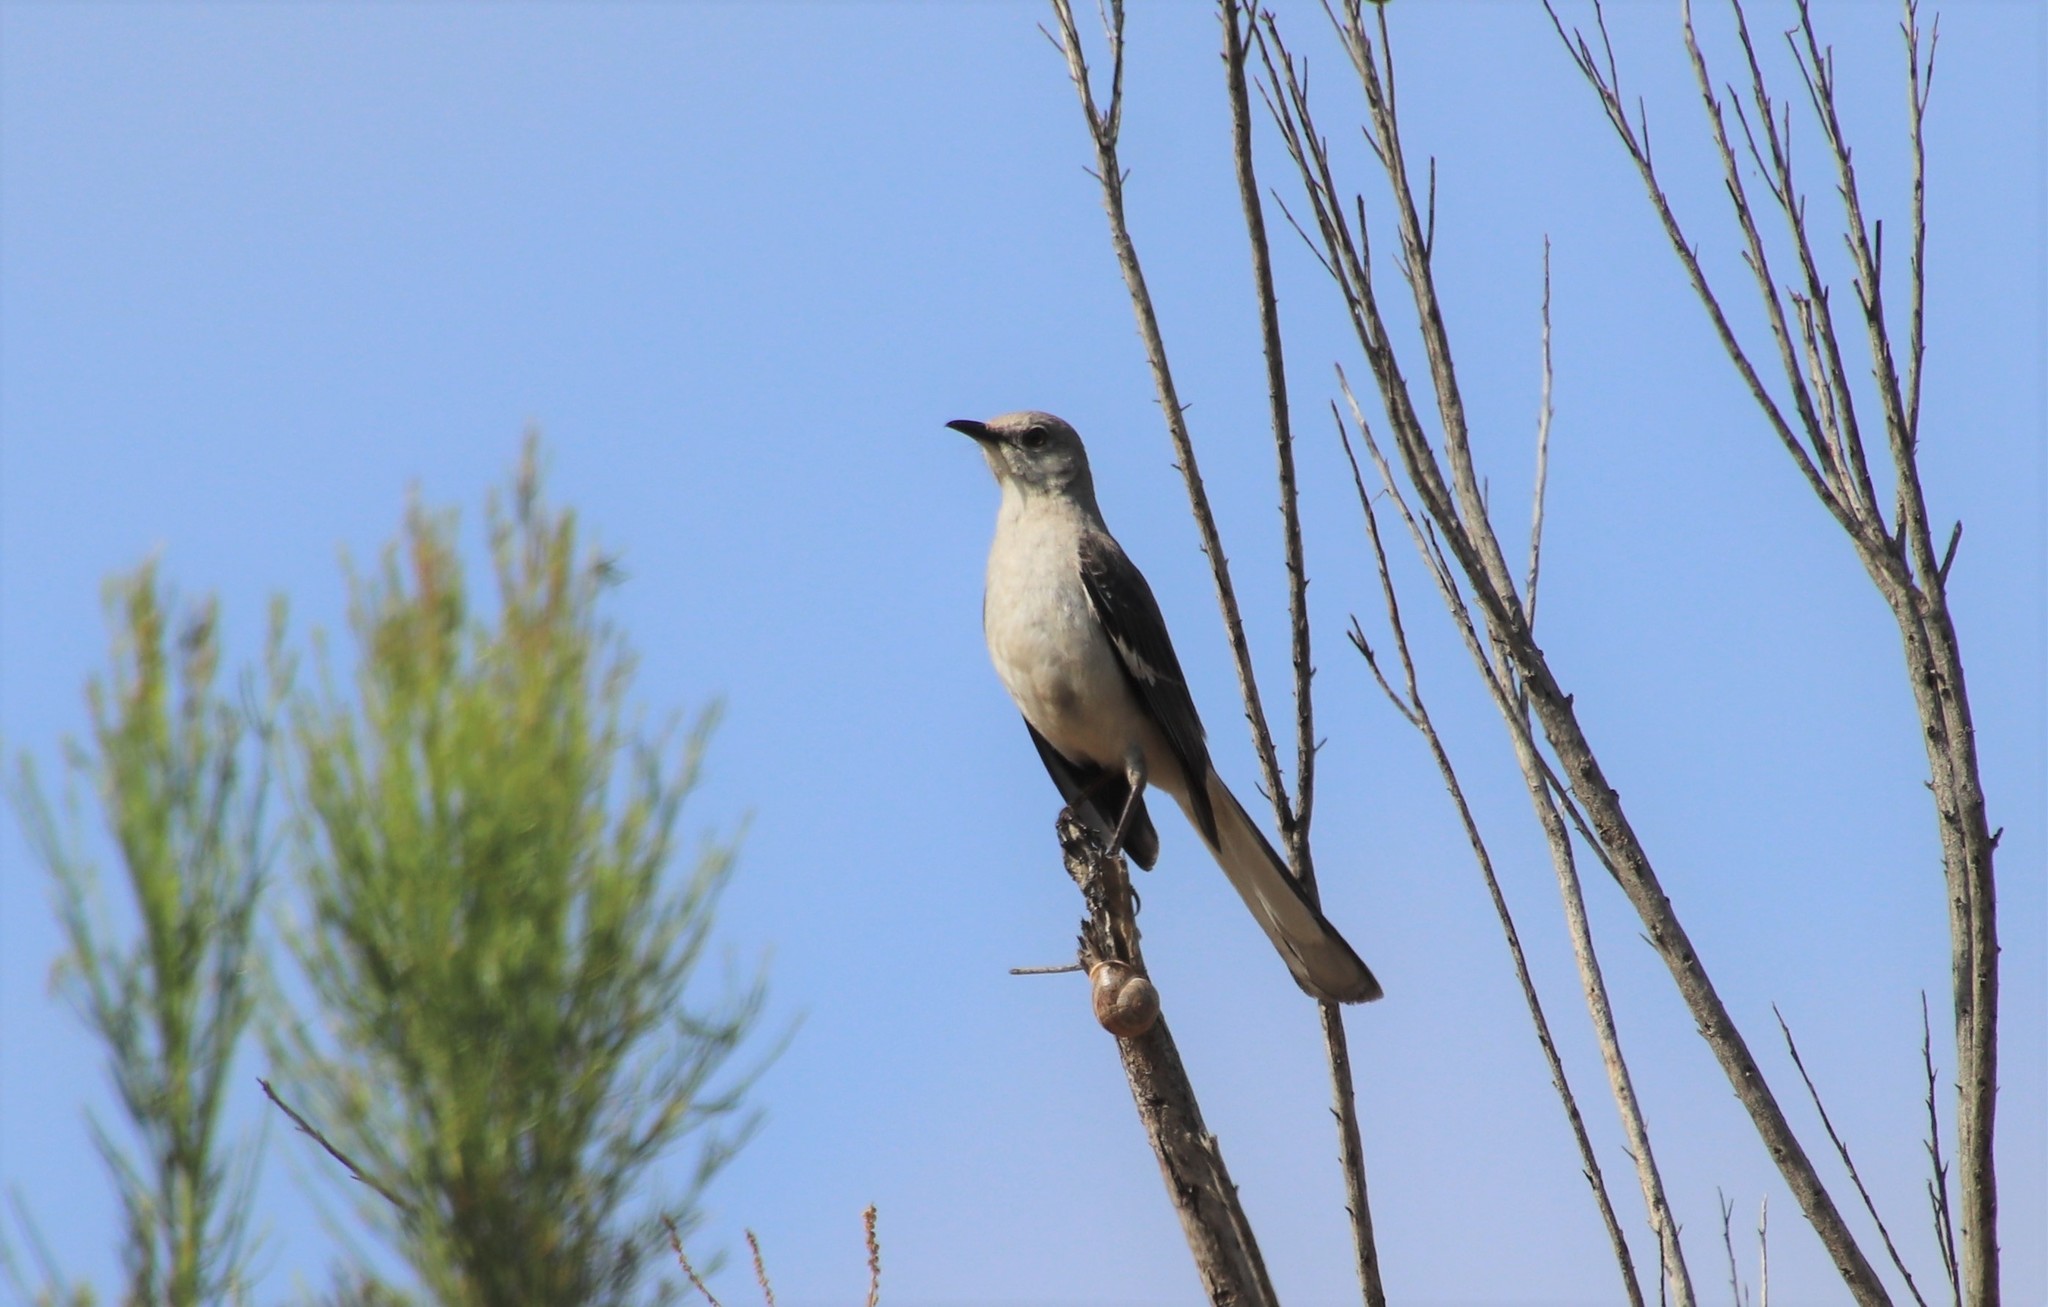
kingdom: Animalia
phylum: Chordata
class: Aves
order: Passeriformes
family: Mimidae
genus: Mimus
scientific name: Mimus polyglottos
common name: Northern mockingbird
